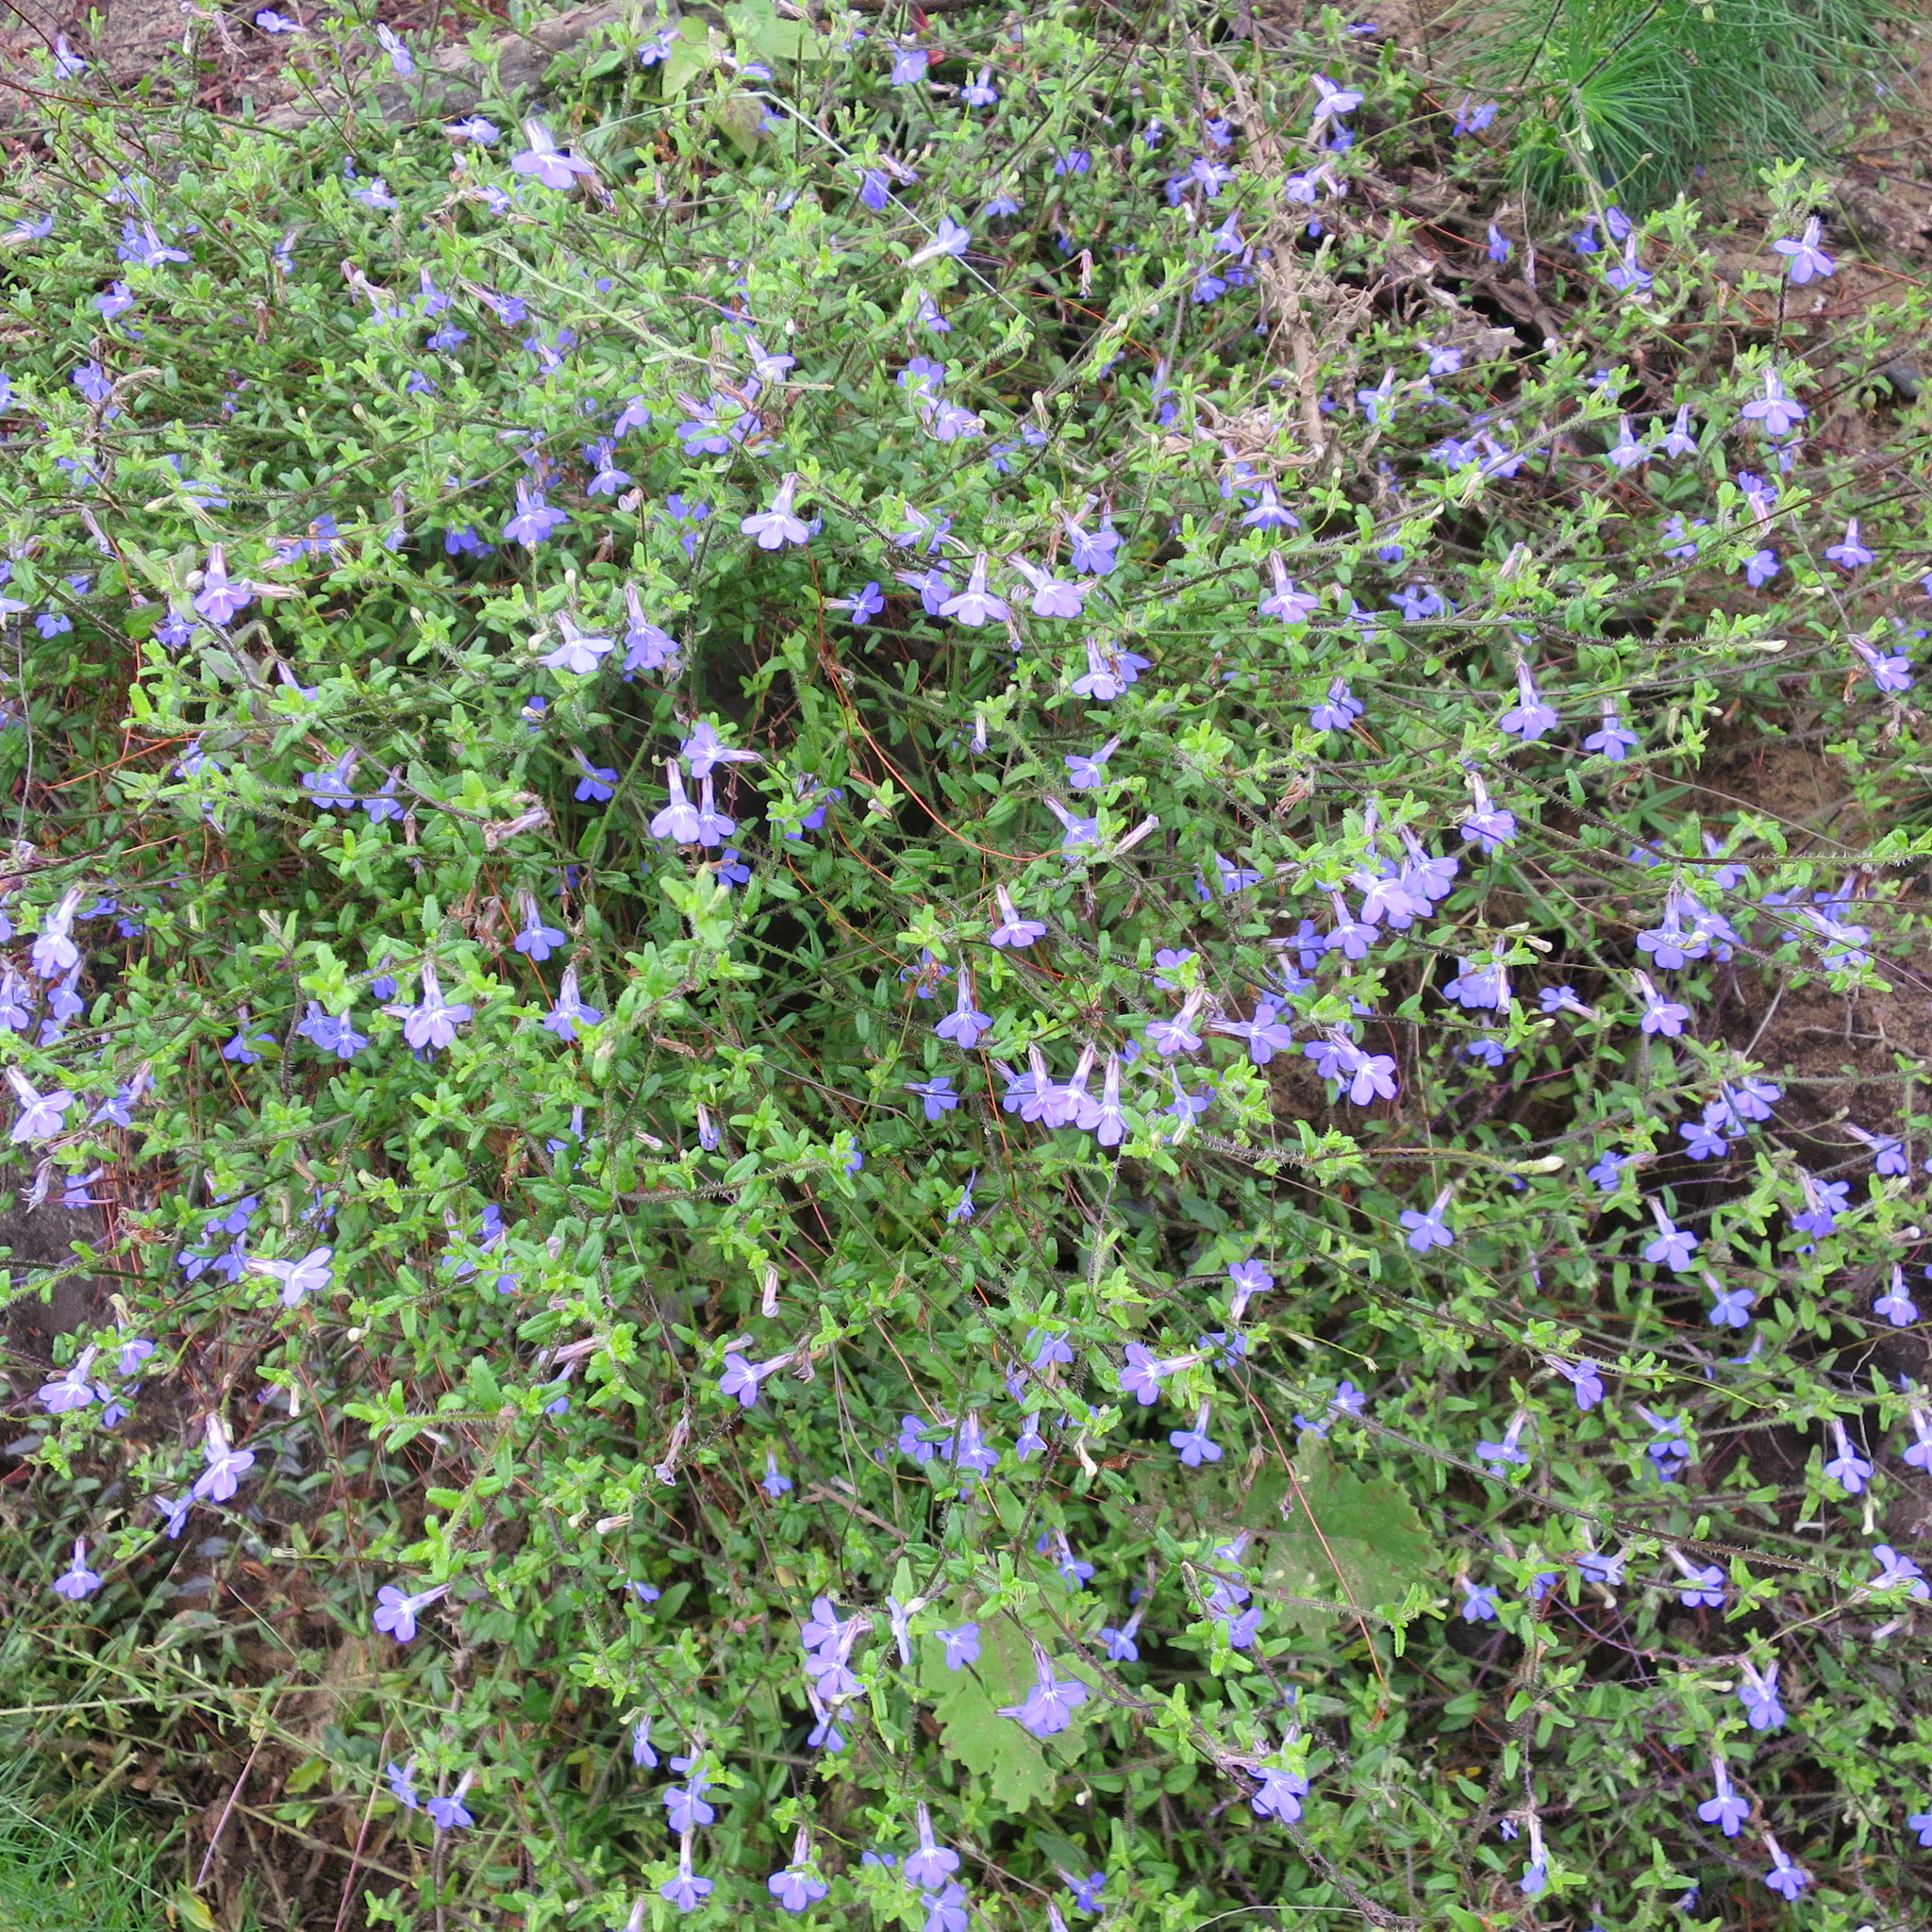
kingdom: Plantae
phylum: Tracheophyta
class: Magnoliopsida
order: Asterales
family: Campanulaceae
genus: Lobelia
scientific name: Lobelia neglecta
